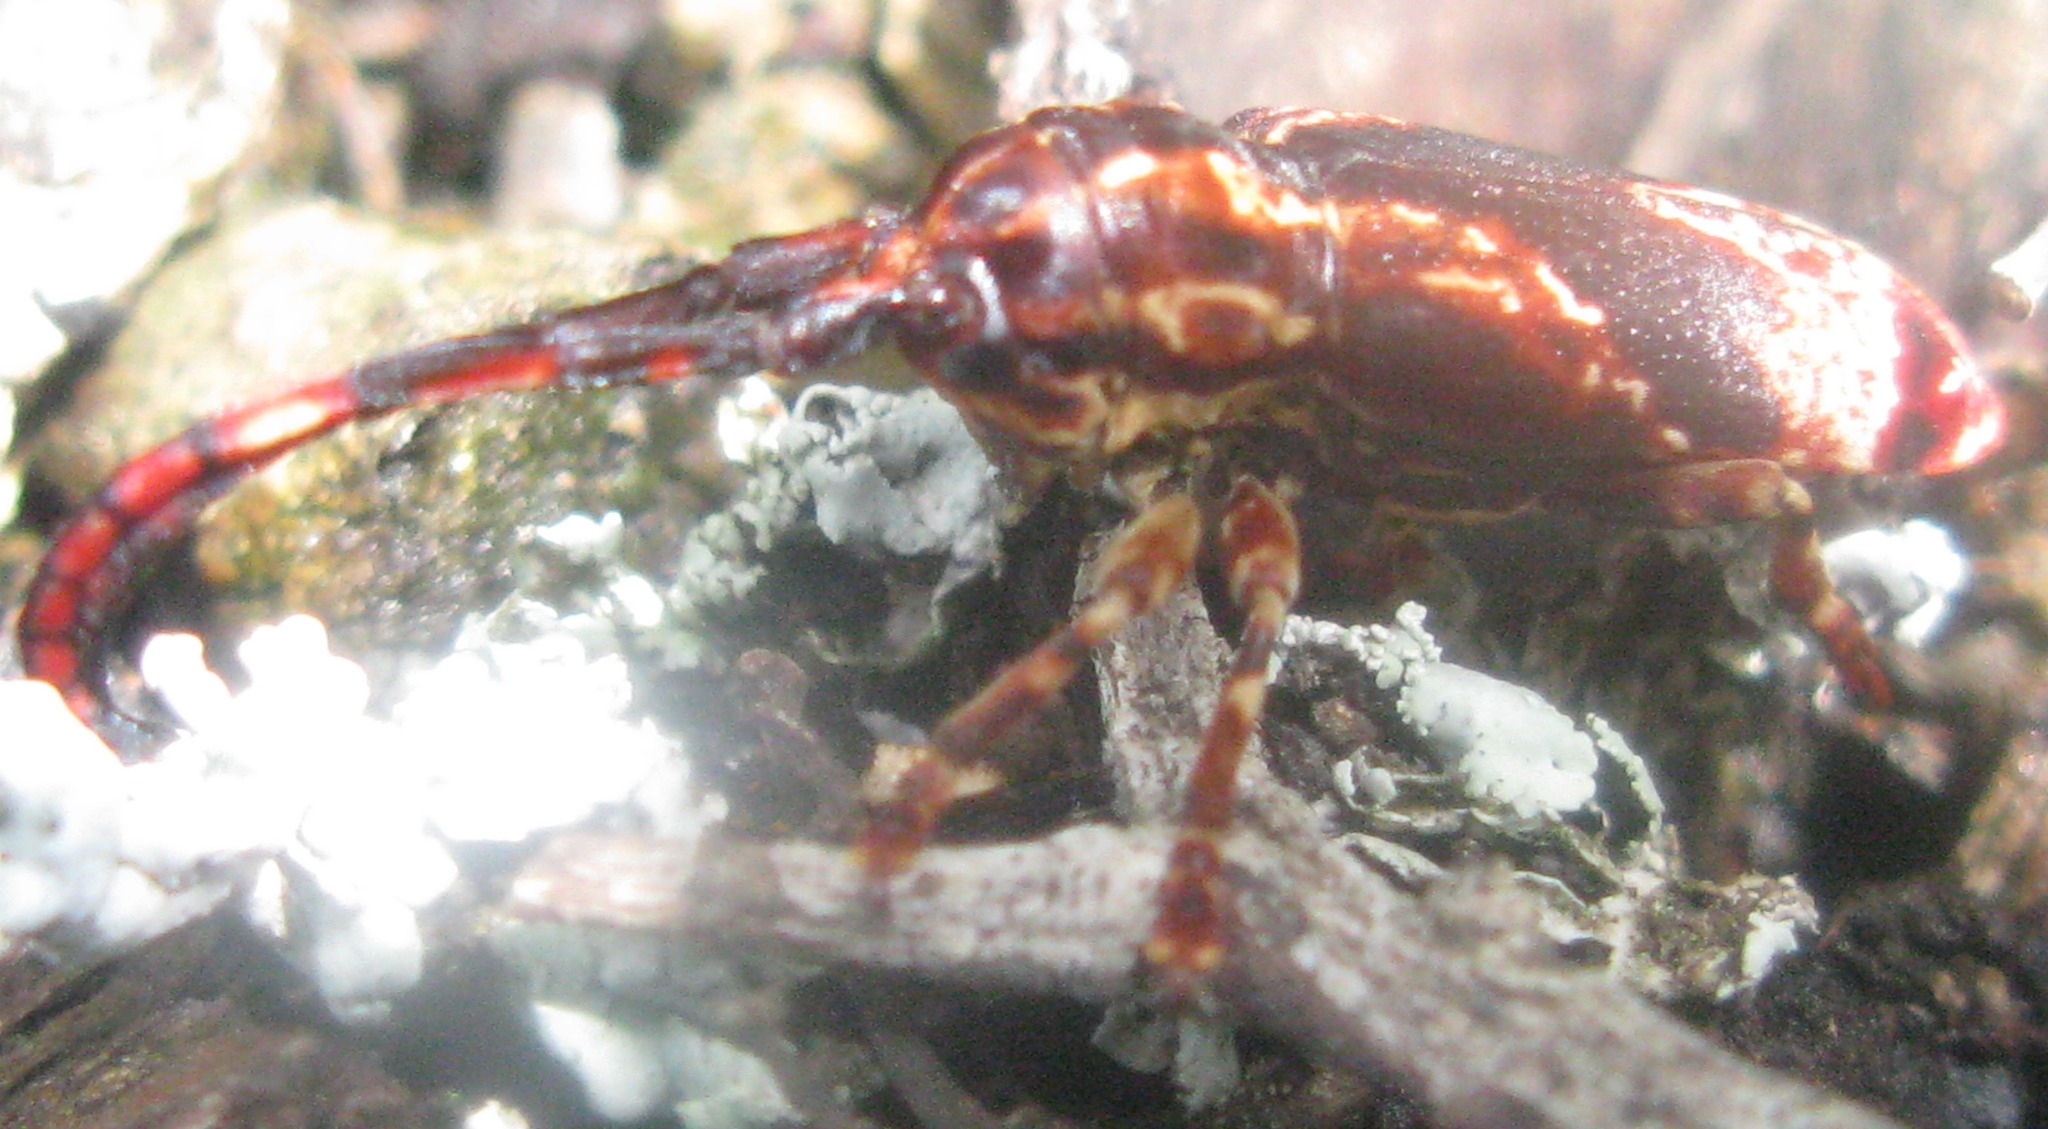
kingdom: Animalia
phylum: Arthropoda
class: Insecta
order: Coleoptera
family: Cerambycidae
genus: Armatosterna
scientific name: Armatosterna castelnaudii
